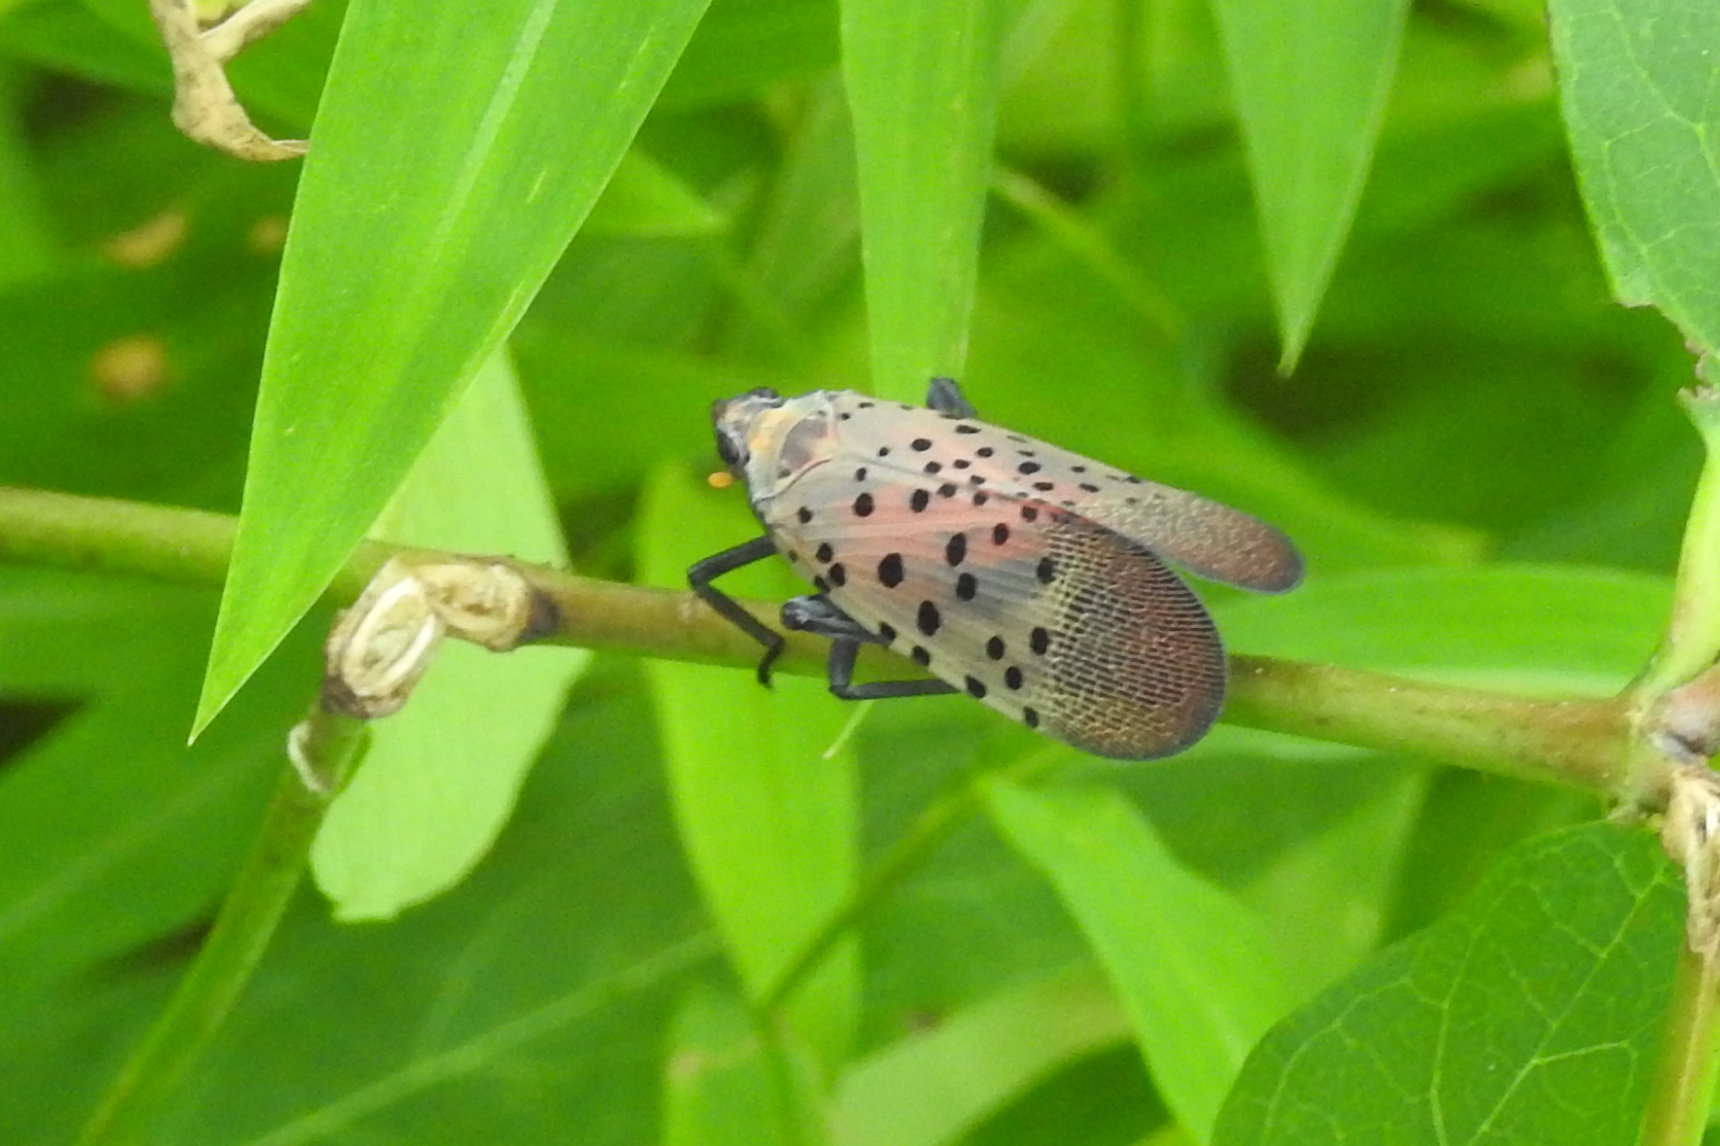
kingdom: Animalia
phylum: Arthropoda
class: Insecta
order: Hemiptera
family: Fulgoridae
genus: Lycorma
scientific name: Lycorma delicatula
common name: Spotted lanternfly
